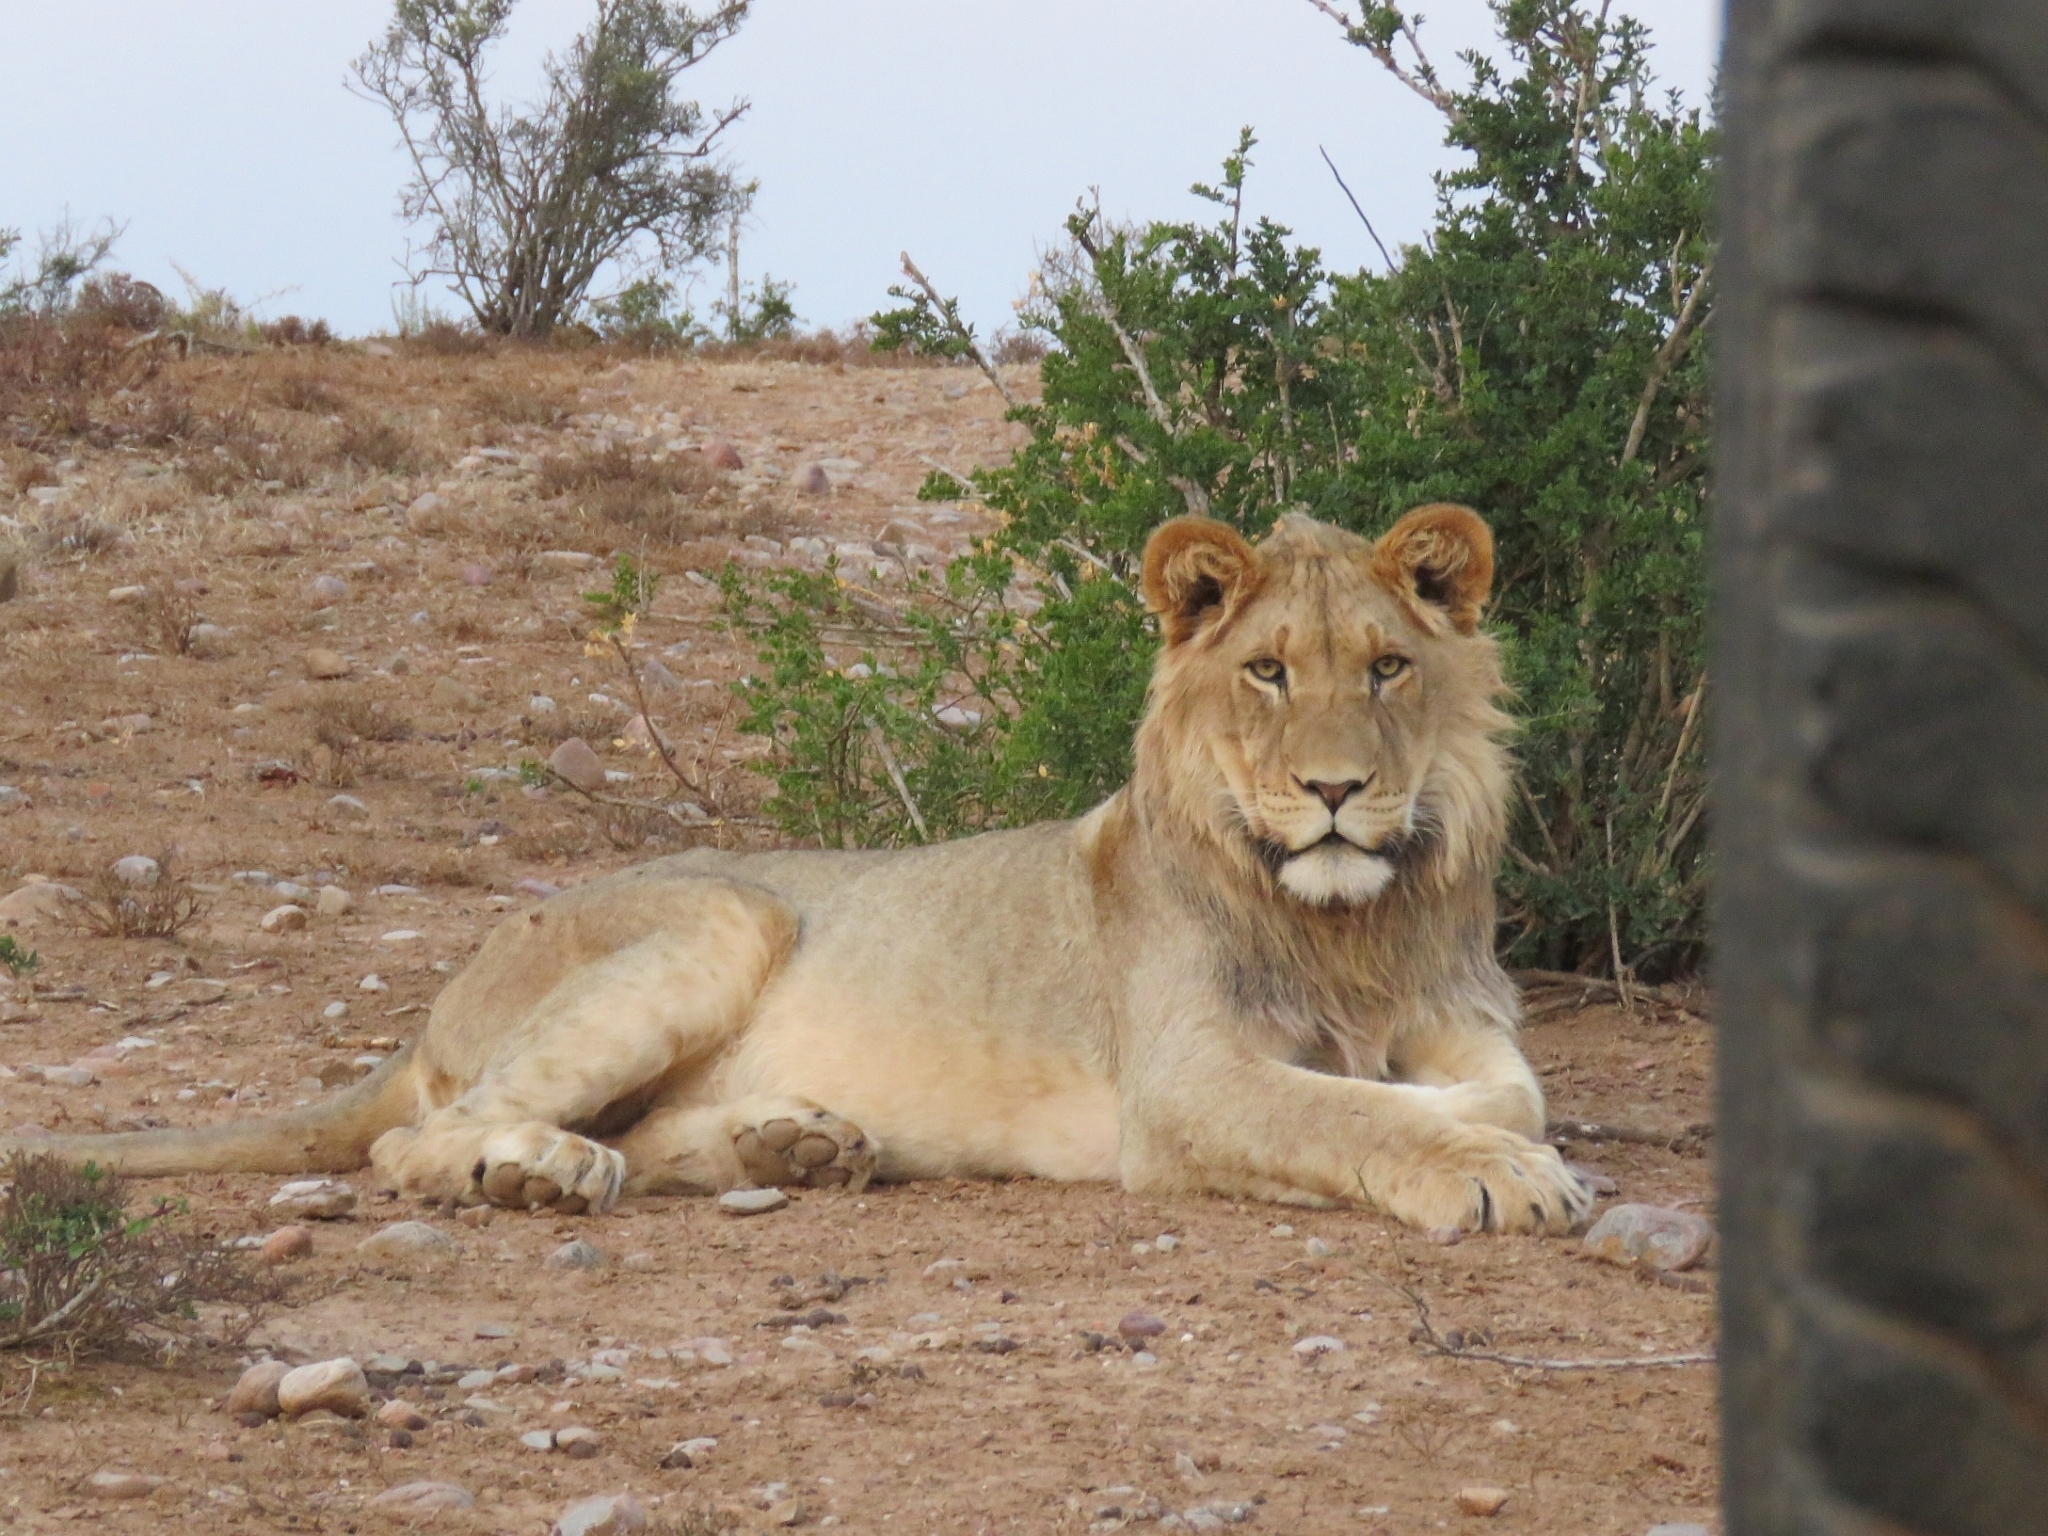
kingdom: Animalia
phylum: Chordata
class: Mammalia
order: Carnivora
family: Felidae
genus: Panthera
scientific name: Panthera leo
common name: Lion
